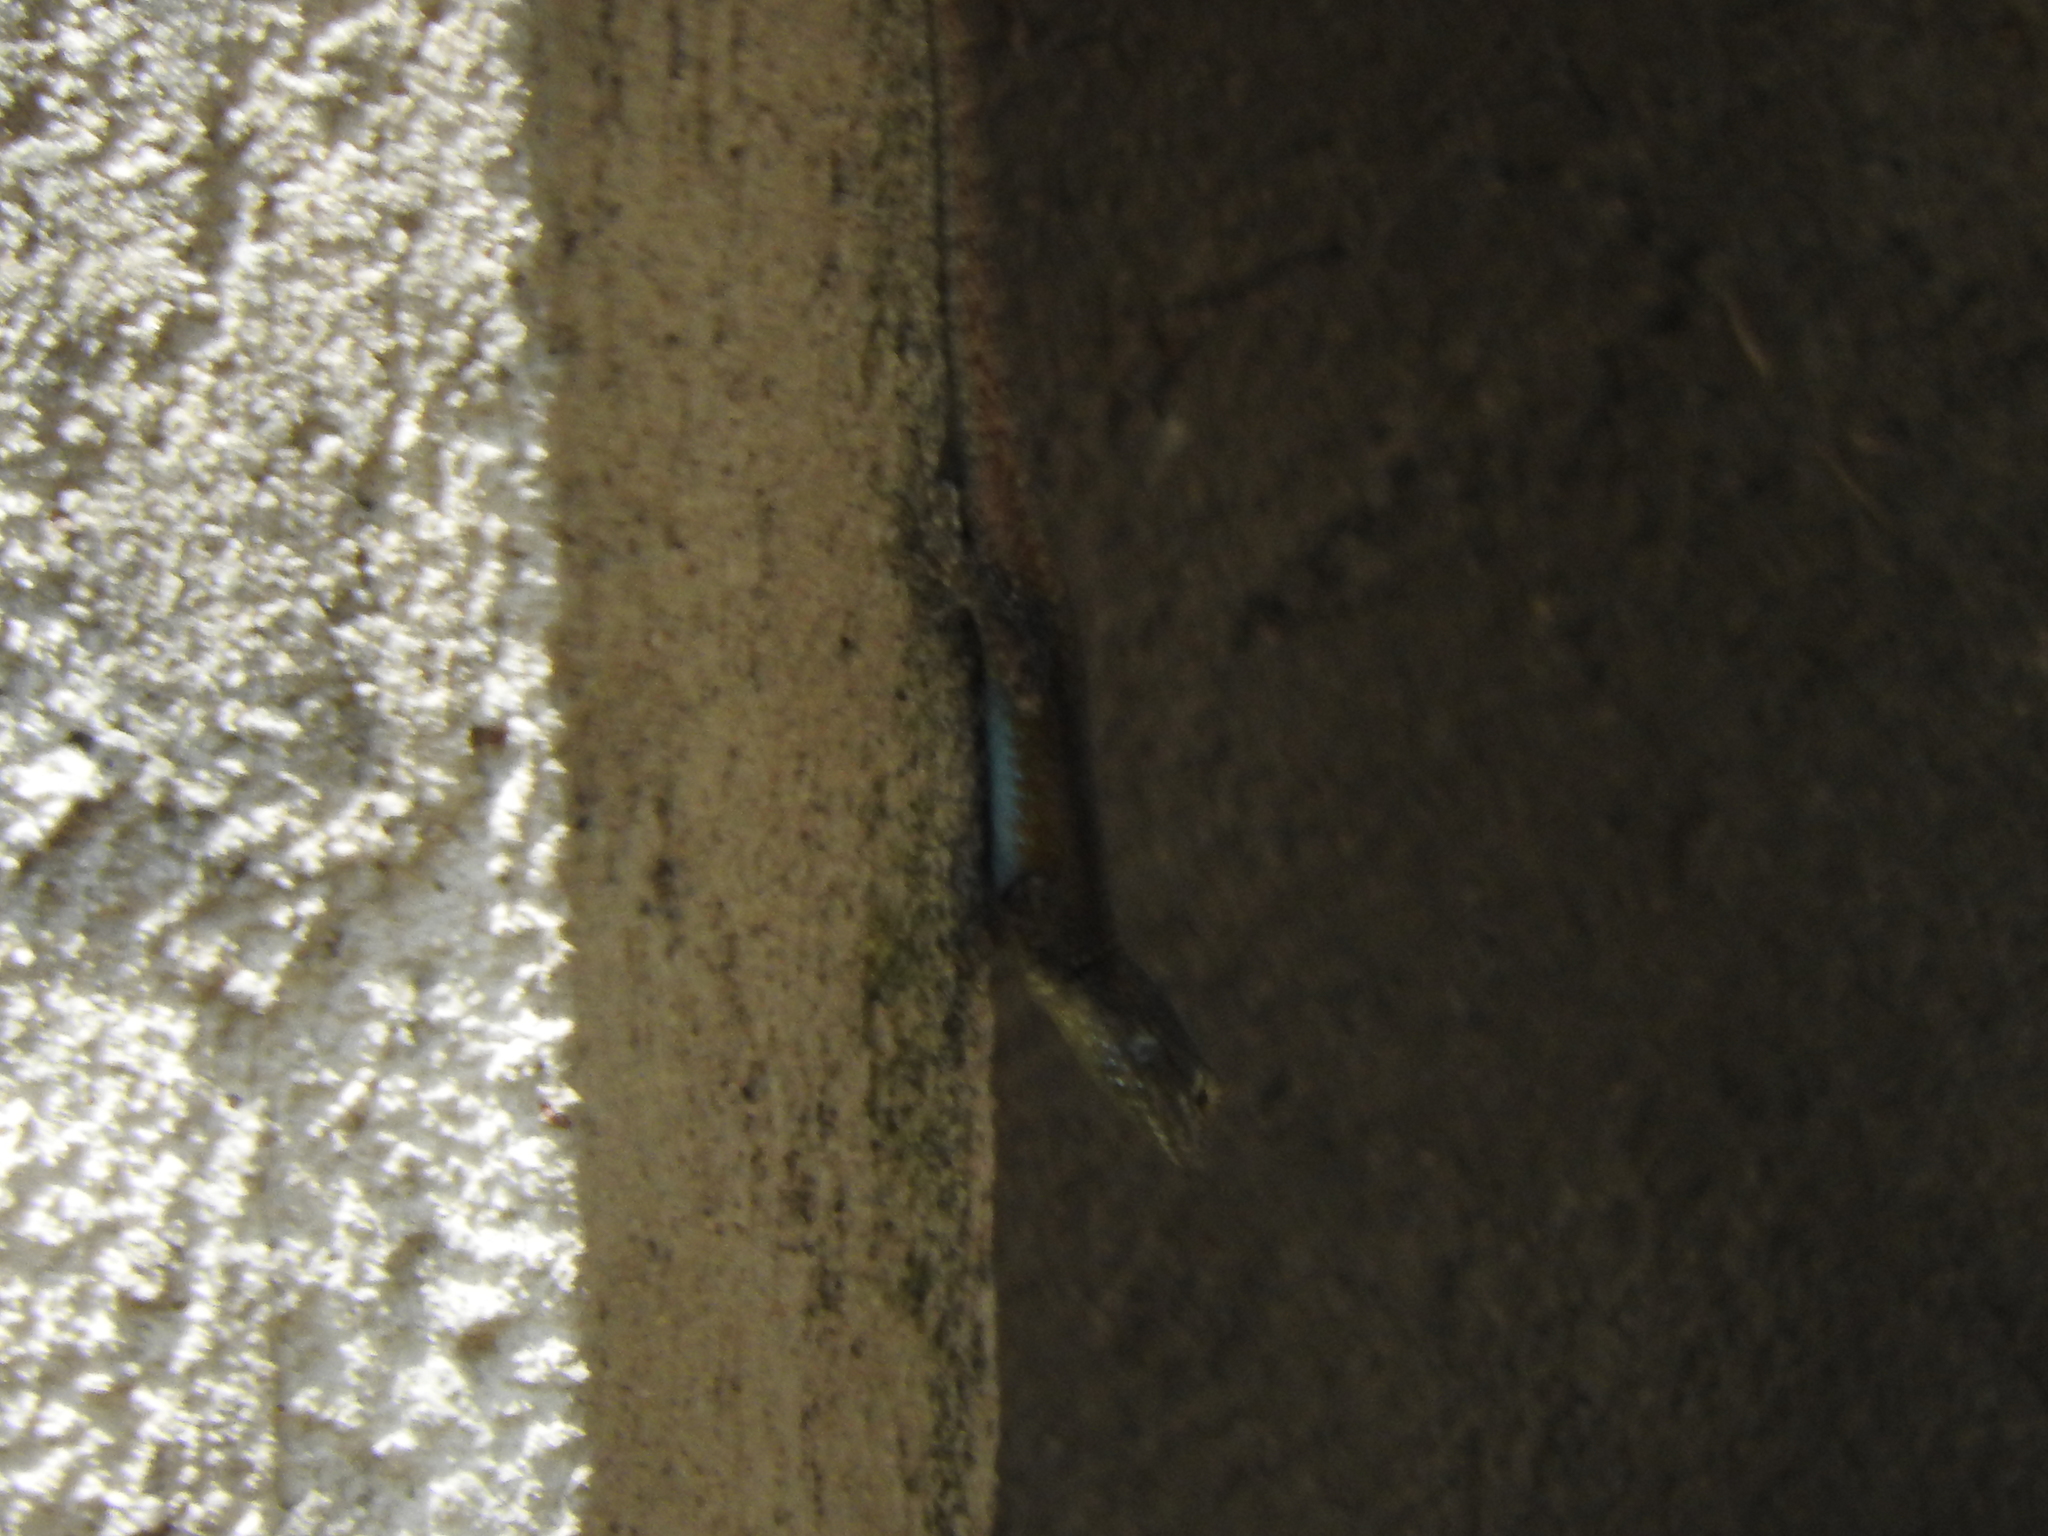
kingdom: Animalia
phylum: Chordata
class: Squamata
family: Phrynosomatidae
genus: Sceloporus
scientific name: Sceloporus grammicus
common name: Mesquite lizard
